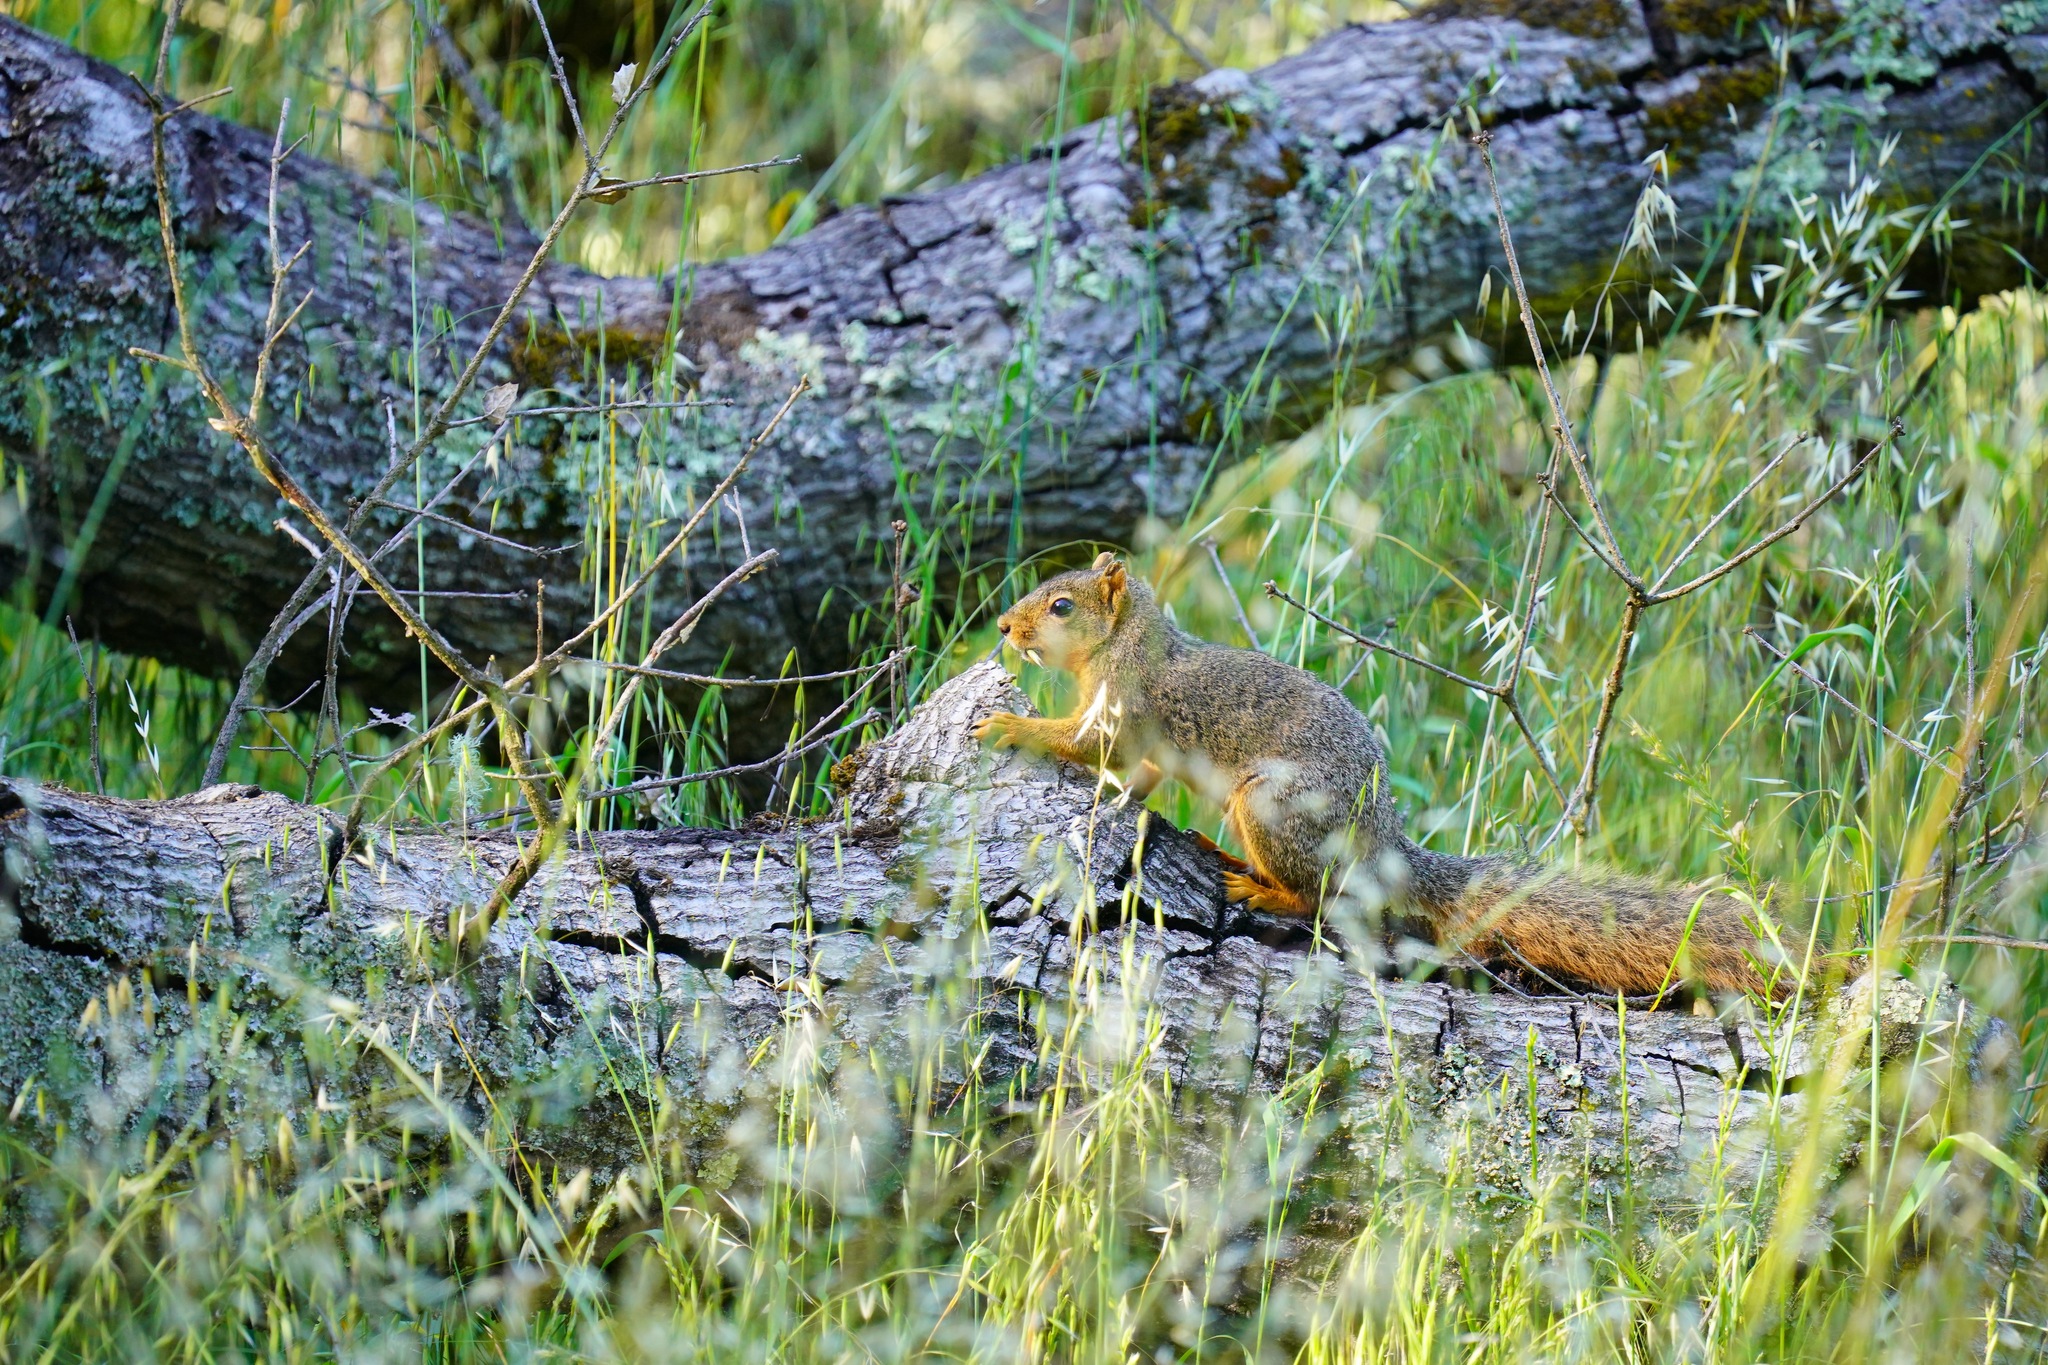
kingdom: Animalia
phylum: Chordata
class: Mammalia
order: Rodentia
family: Sciuridae
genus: Sciurus
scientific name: Sciurus niger
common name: Fox squirrel
